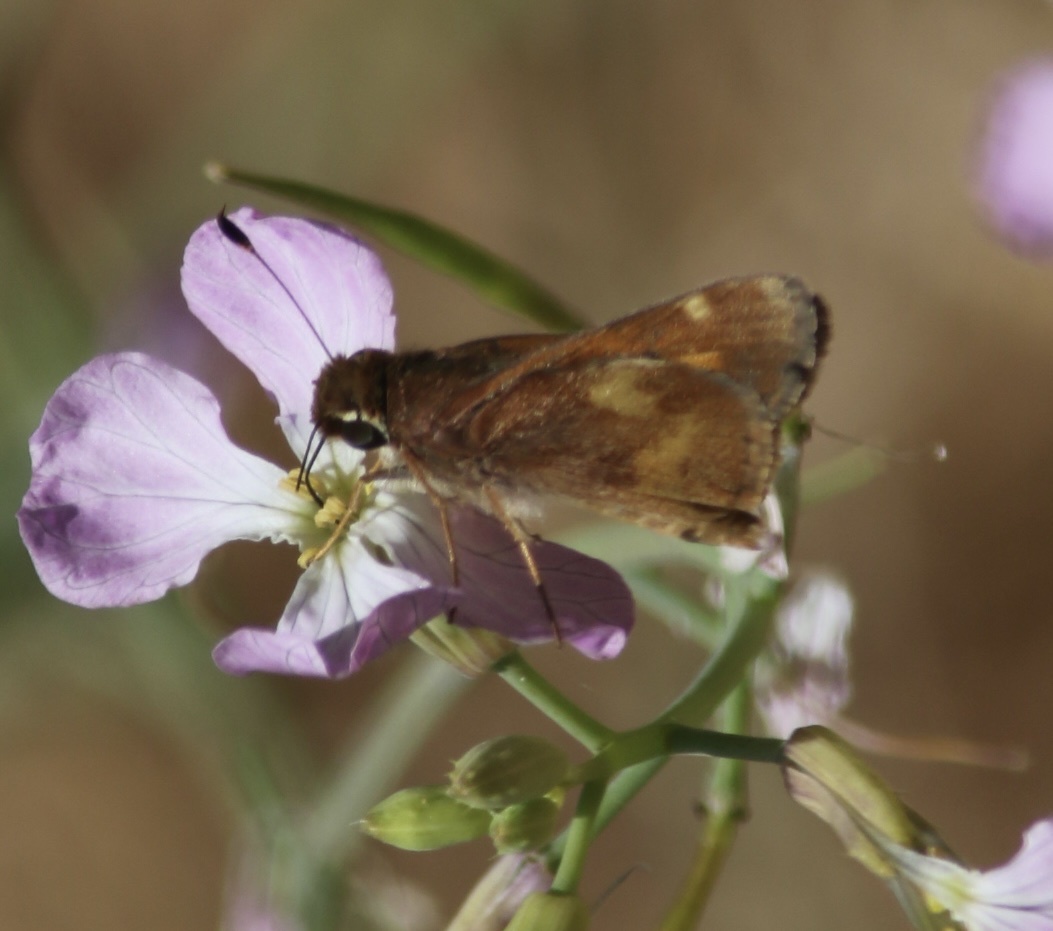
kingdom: Animalia
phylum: Arthropoda
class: Insecta
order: Lepidoptera
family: Hesperiidae
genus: Lon
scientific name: Lon melane
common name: Umber skipper
